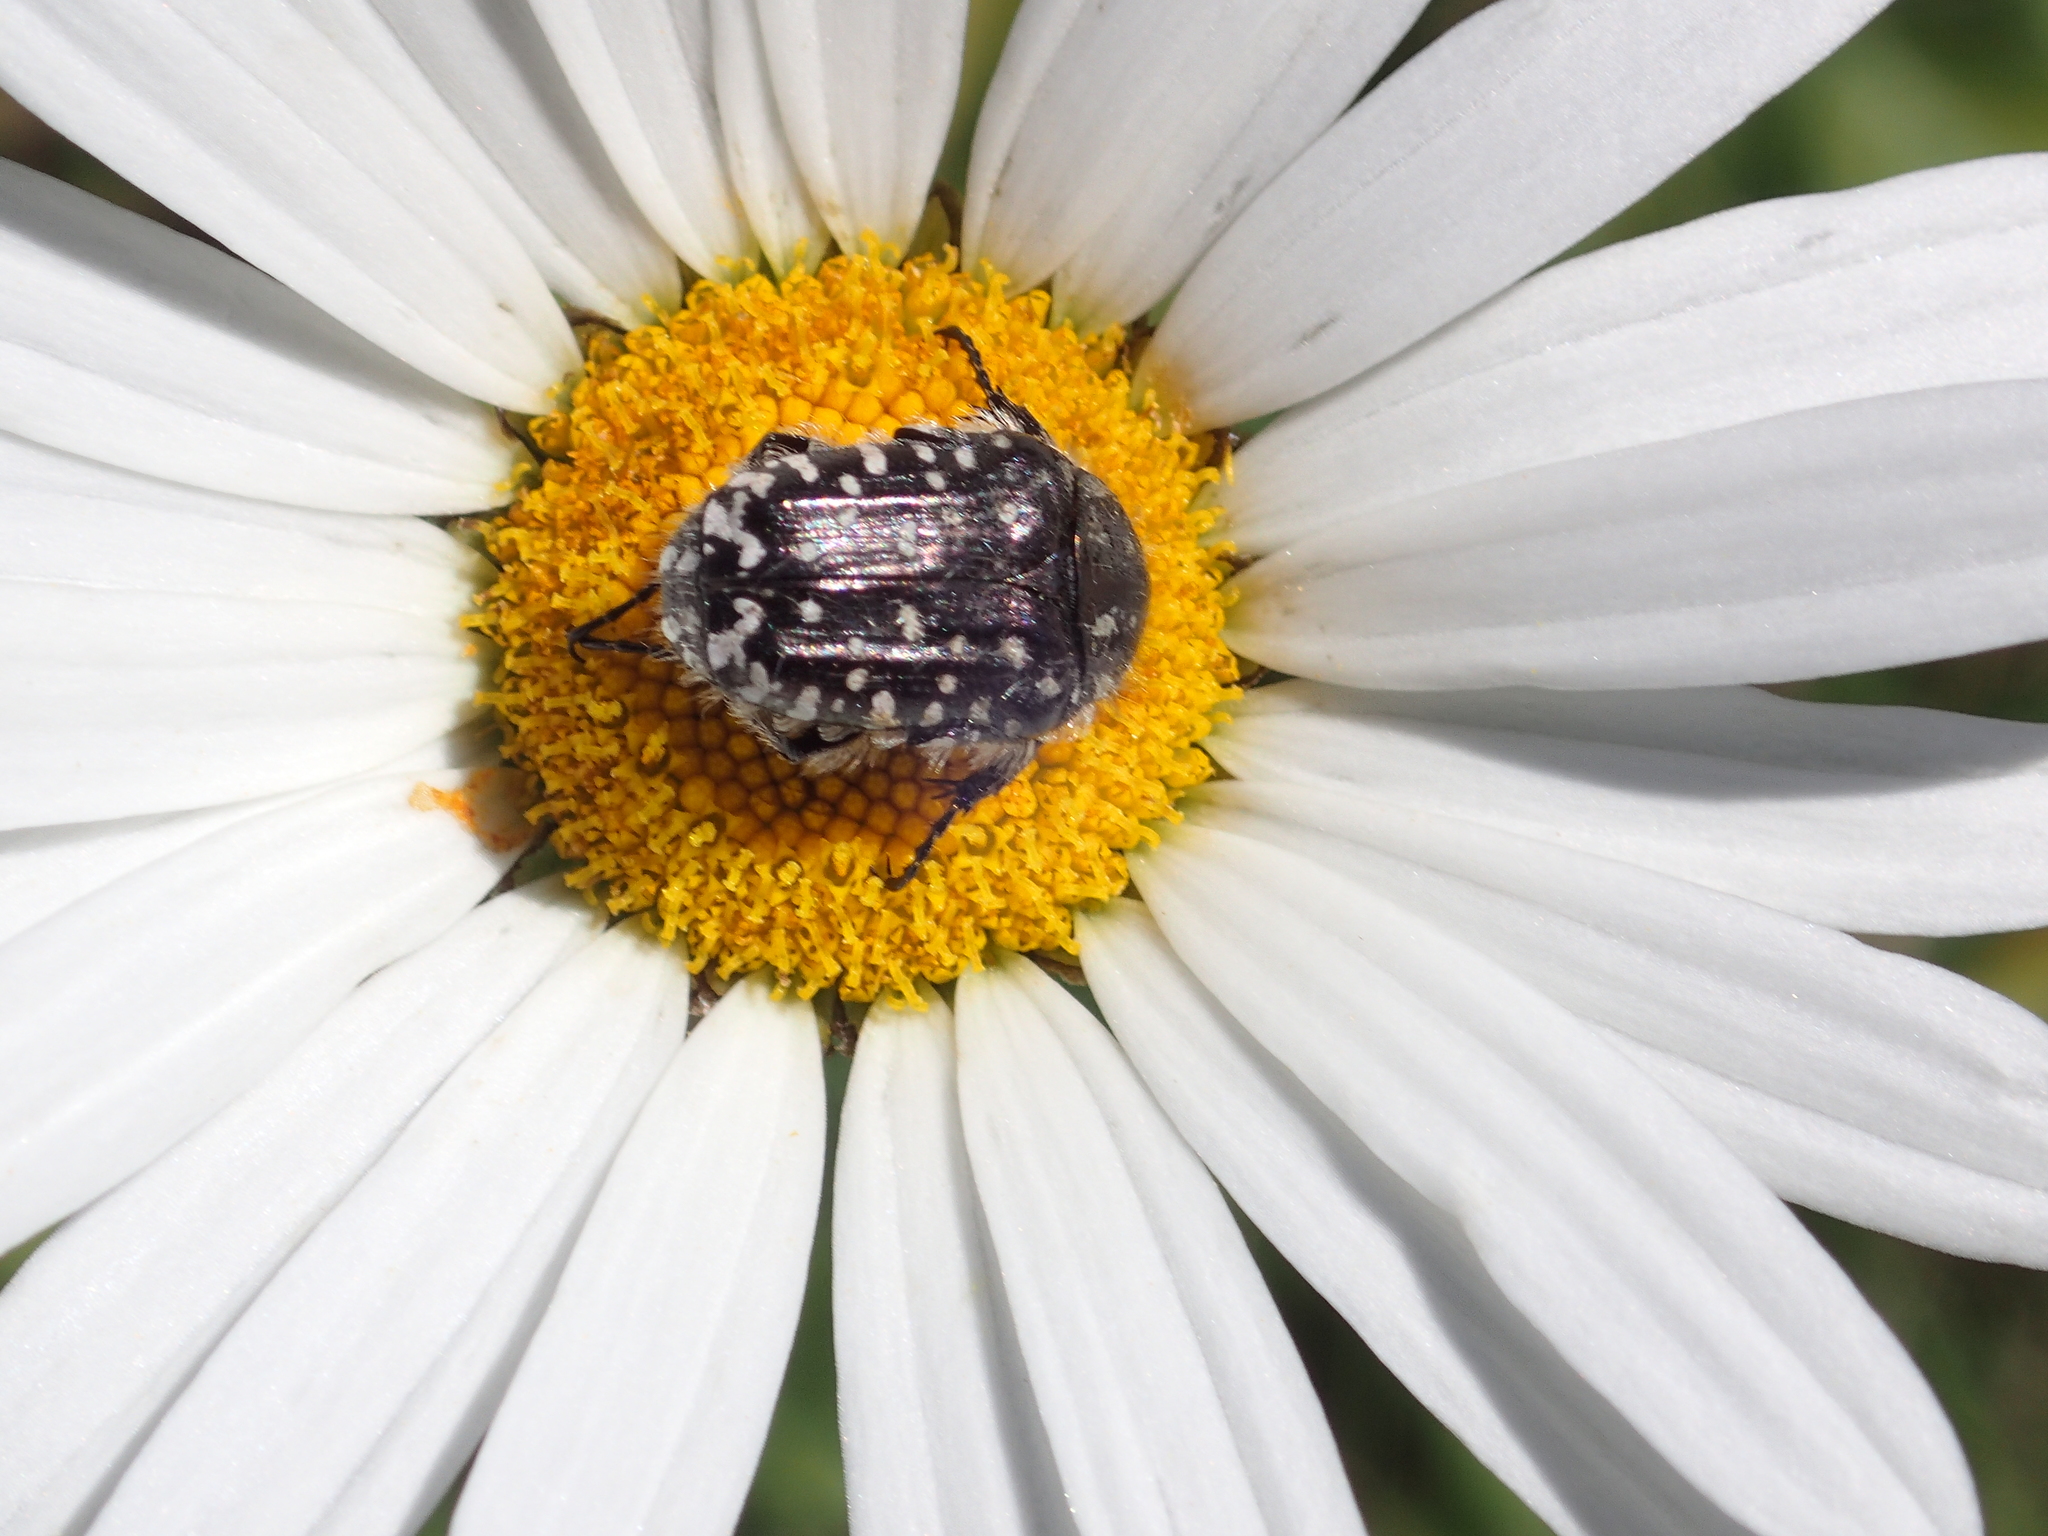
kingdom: Animalia
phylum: Arthropoda
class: Insecta
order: Coleoptera
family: Scarabaeidae
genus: Oxythyrea
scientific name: Oxythyrea funesta
